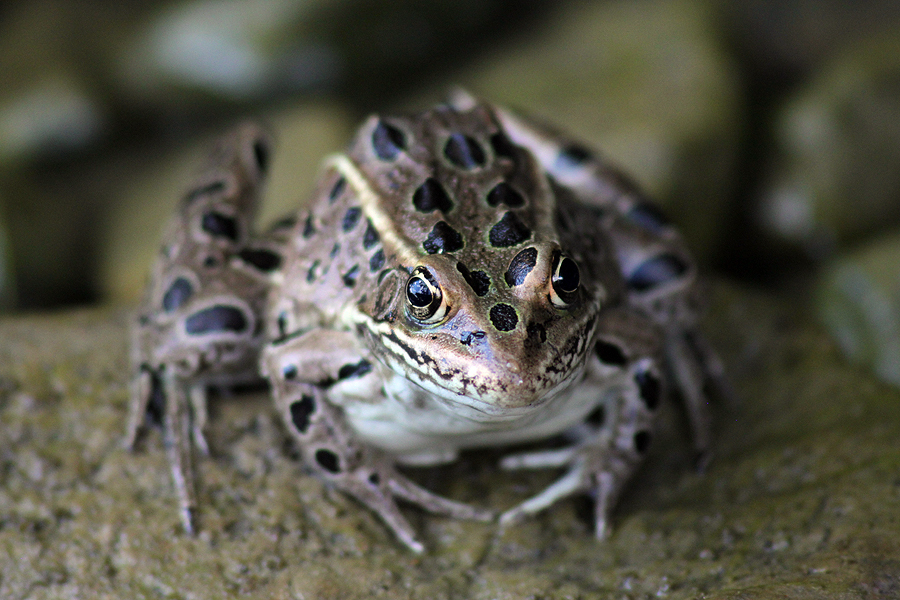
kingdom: Animalia
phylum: Chordata
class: Amphibia
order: Anura
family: Ranidae
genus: Lithobates
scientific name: Lithobates pipiens
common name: Northern leopard frog
